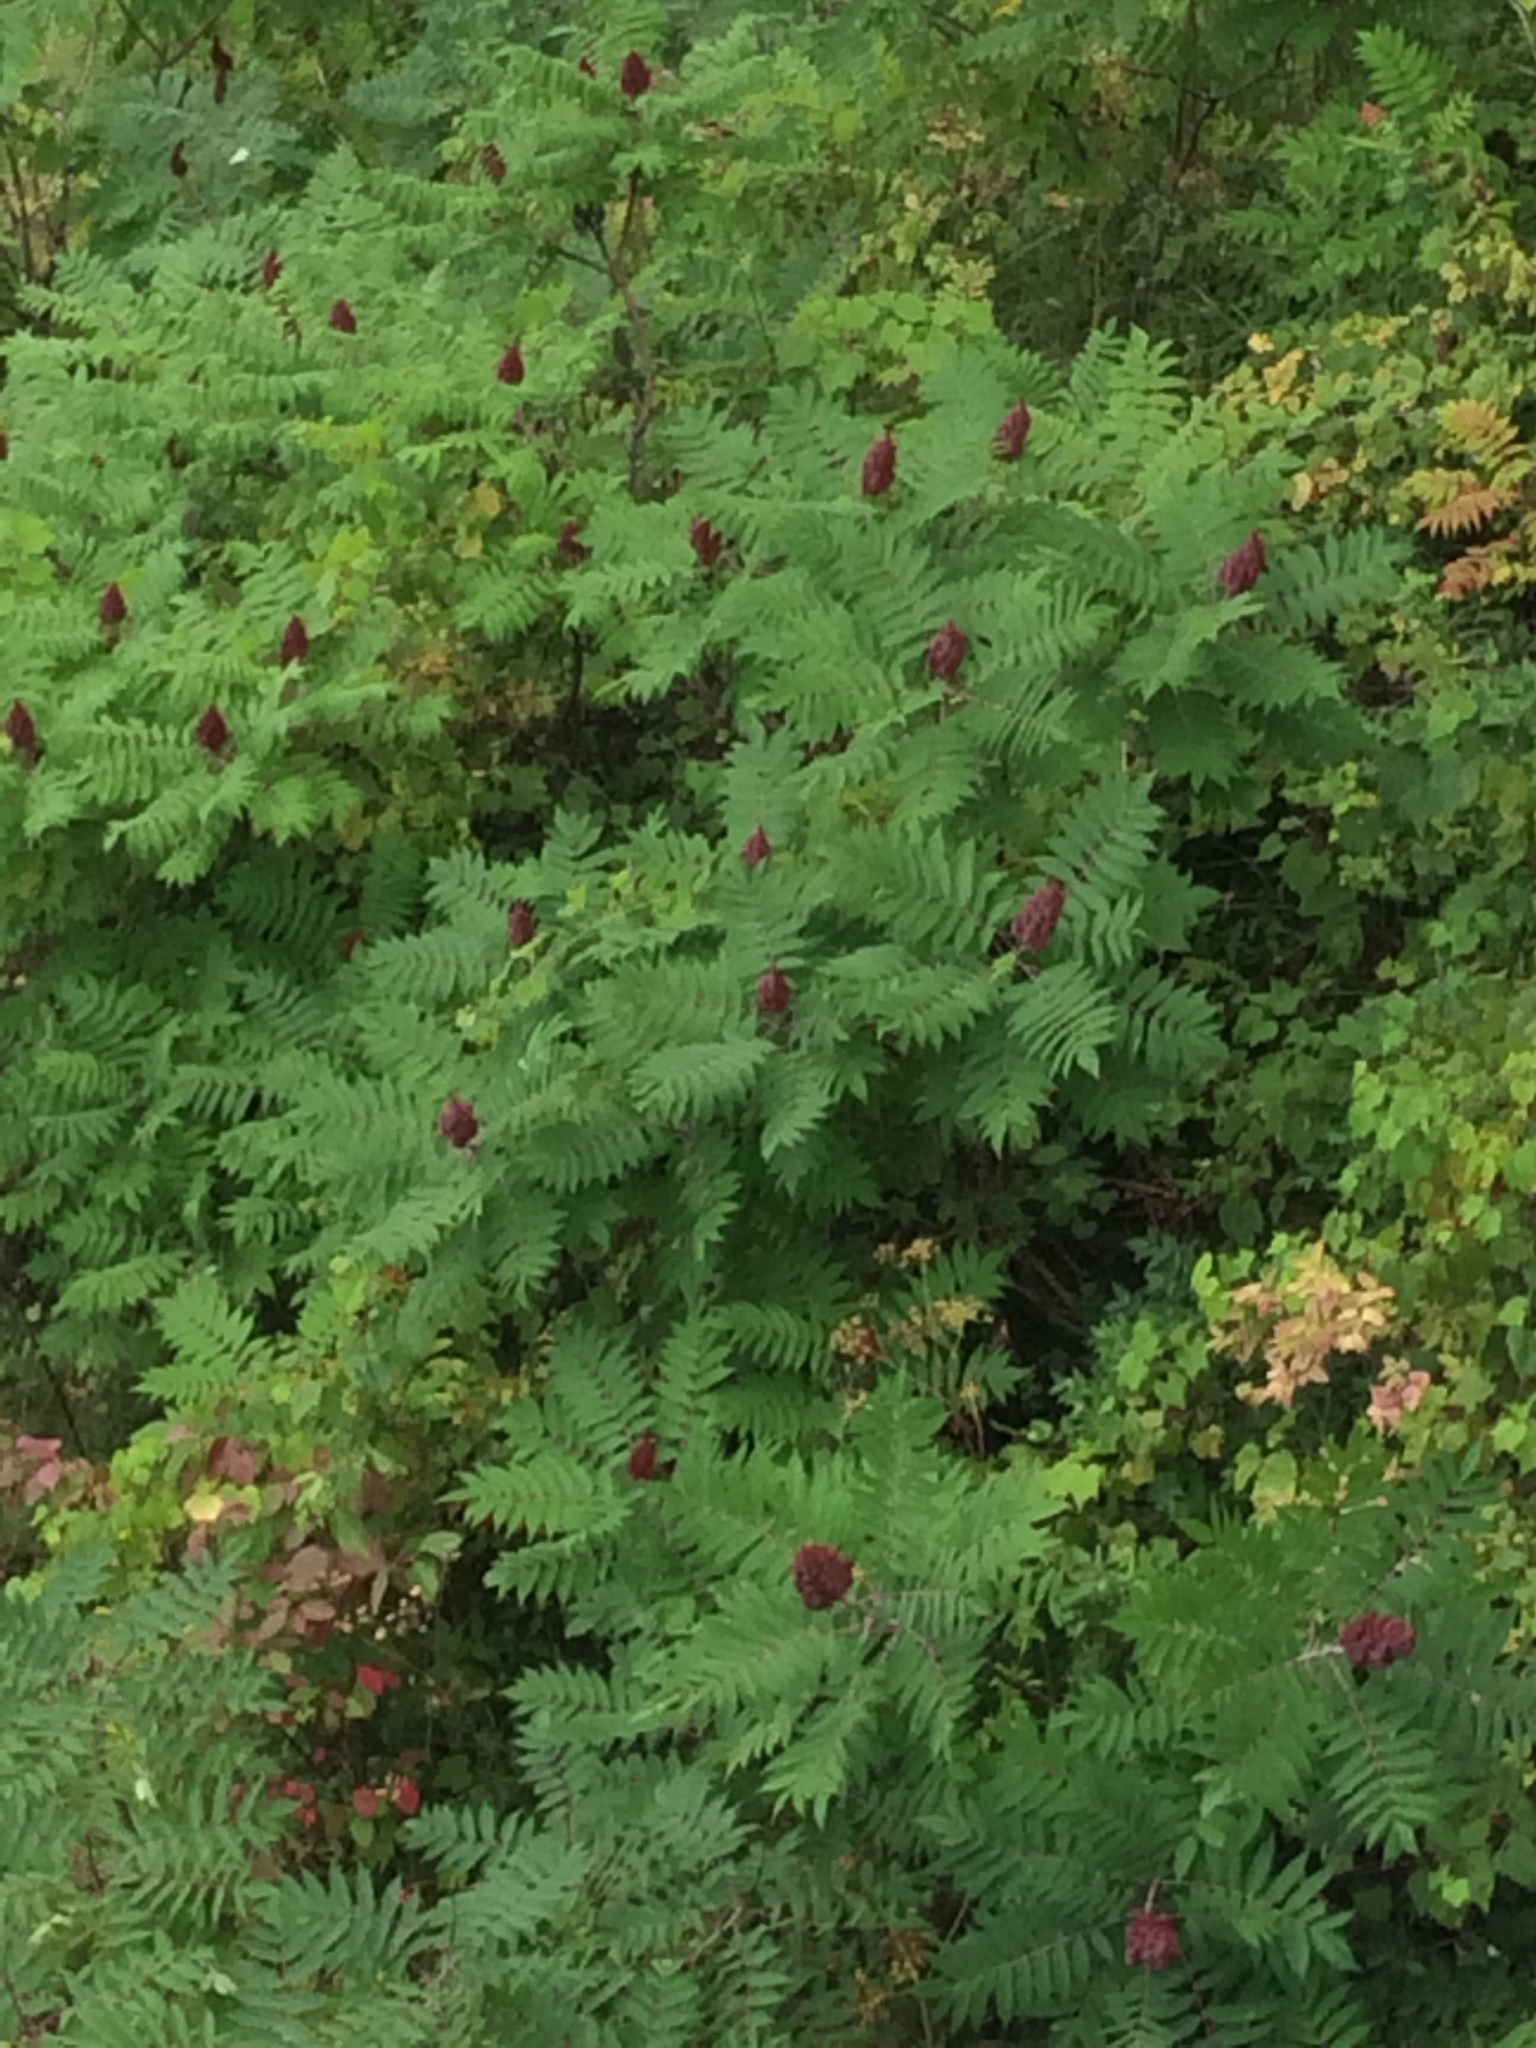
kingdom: Plantae
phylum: Tracheophyta
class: Magnoliopsida
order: Sapindales
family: Anacardiaceae
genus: Rhus
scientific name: Rhus typhina
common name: Staghorn sumac
